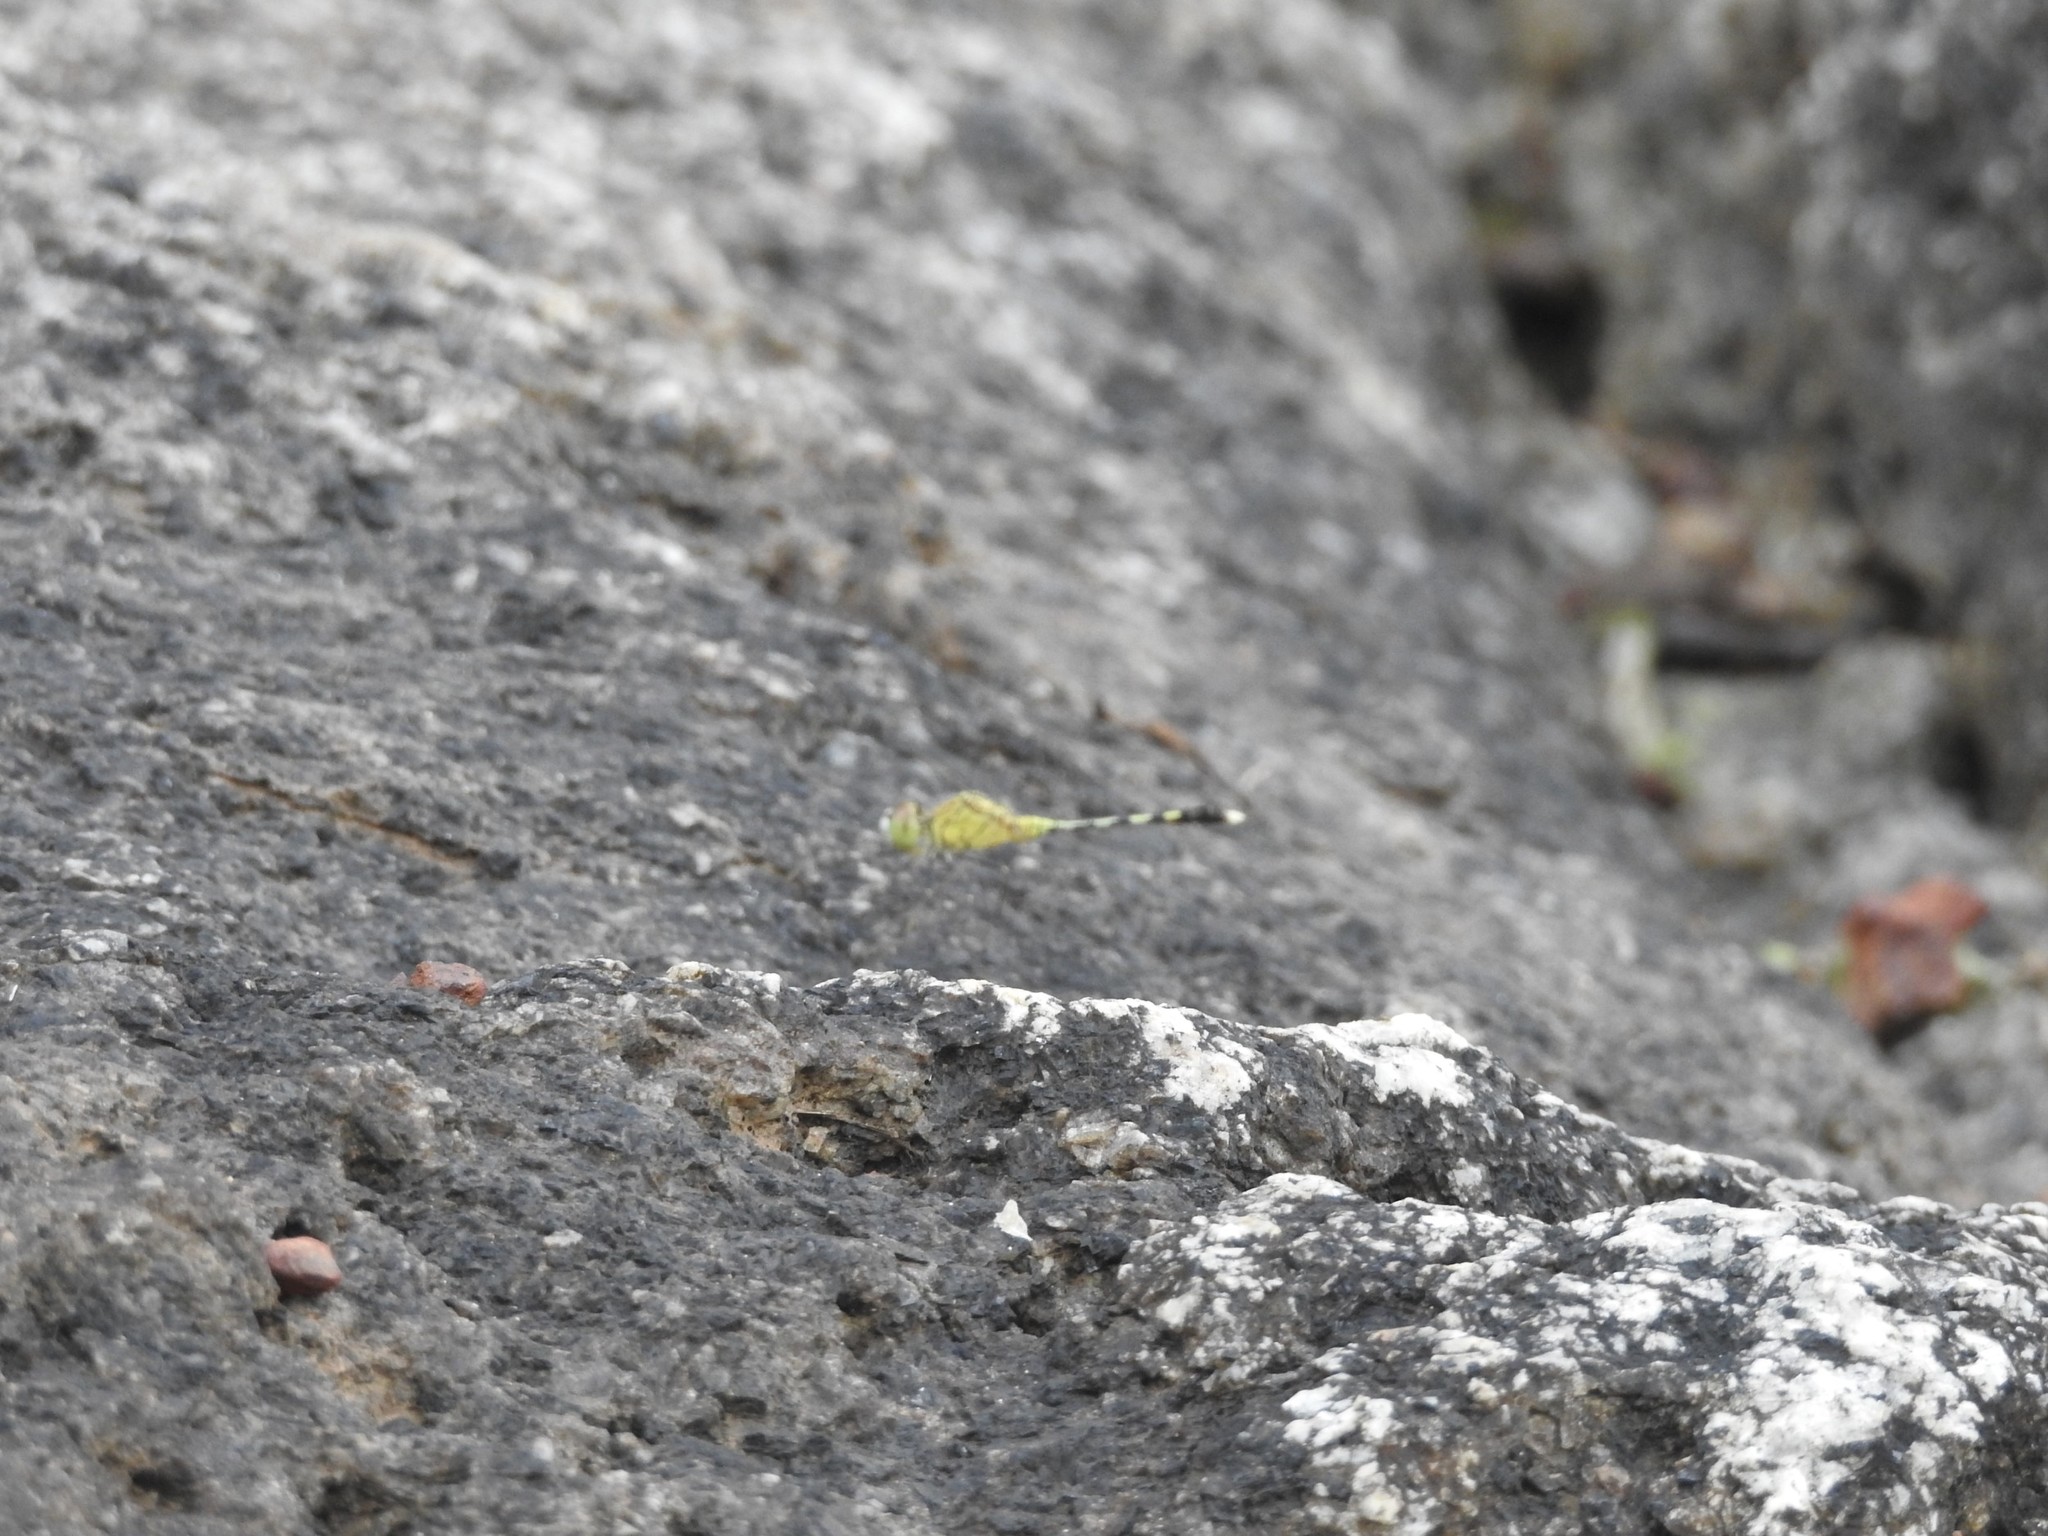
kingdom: Animalia
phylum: Arthropoda
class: Insecta
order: Odonata
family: Libellulidae
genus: Diplacodes
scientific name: Diplacodes trivialis
